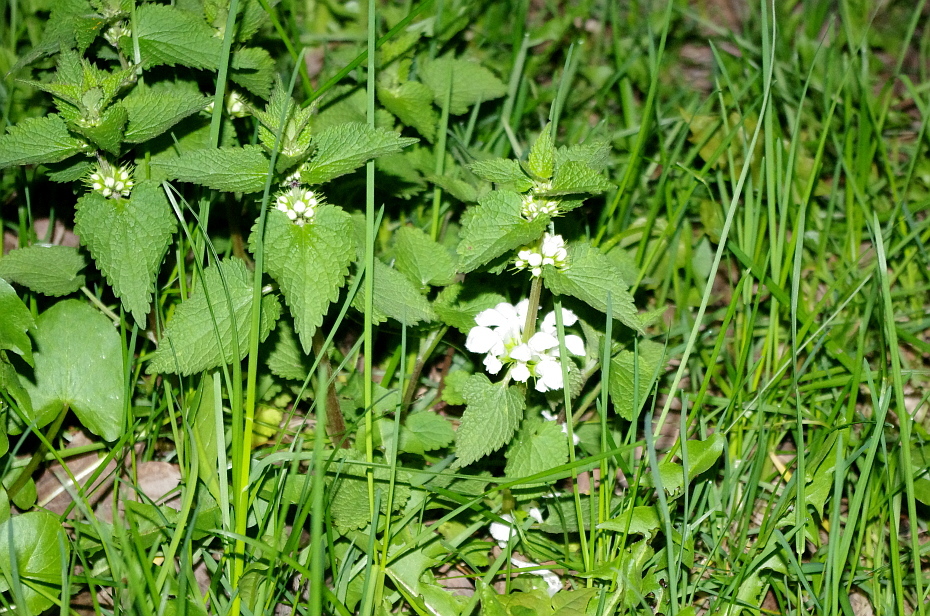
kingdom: Plantae
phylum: Tracheophyta
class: Magnoliopsida
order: Lamiales
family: Lamiaceae
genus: Lamium
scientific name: Lamium album
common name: White dead-nettle
